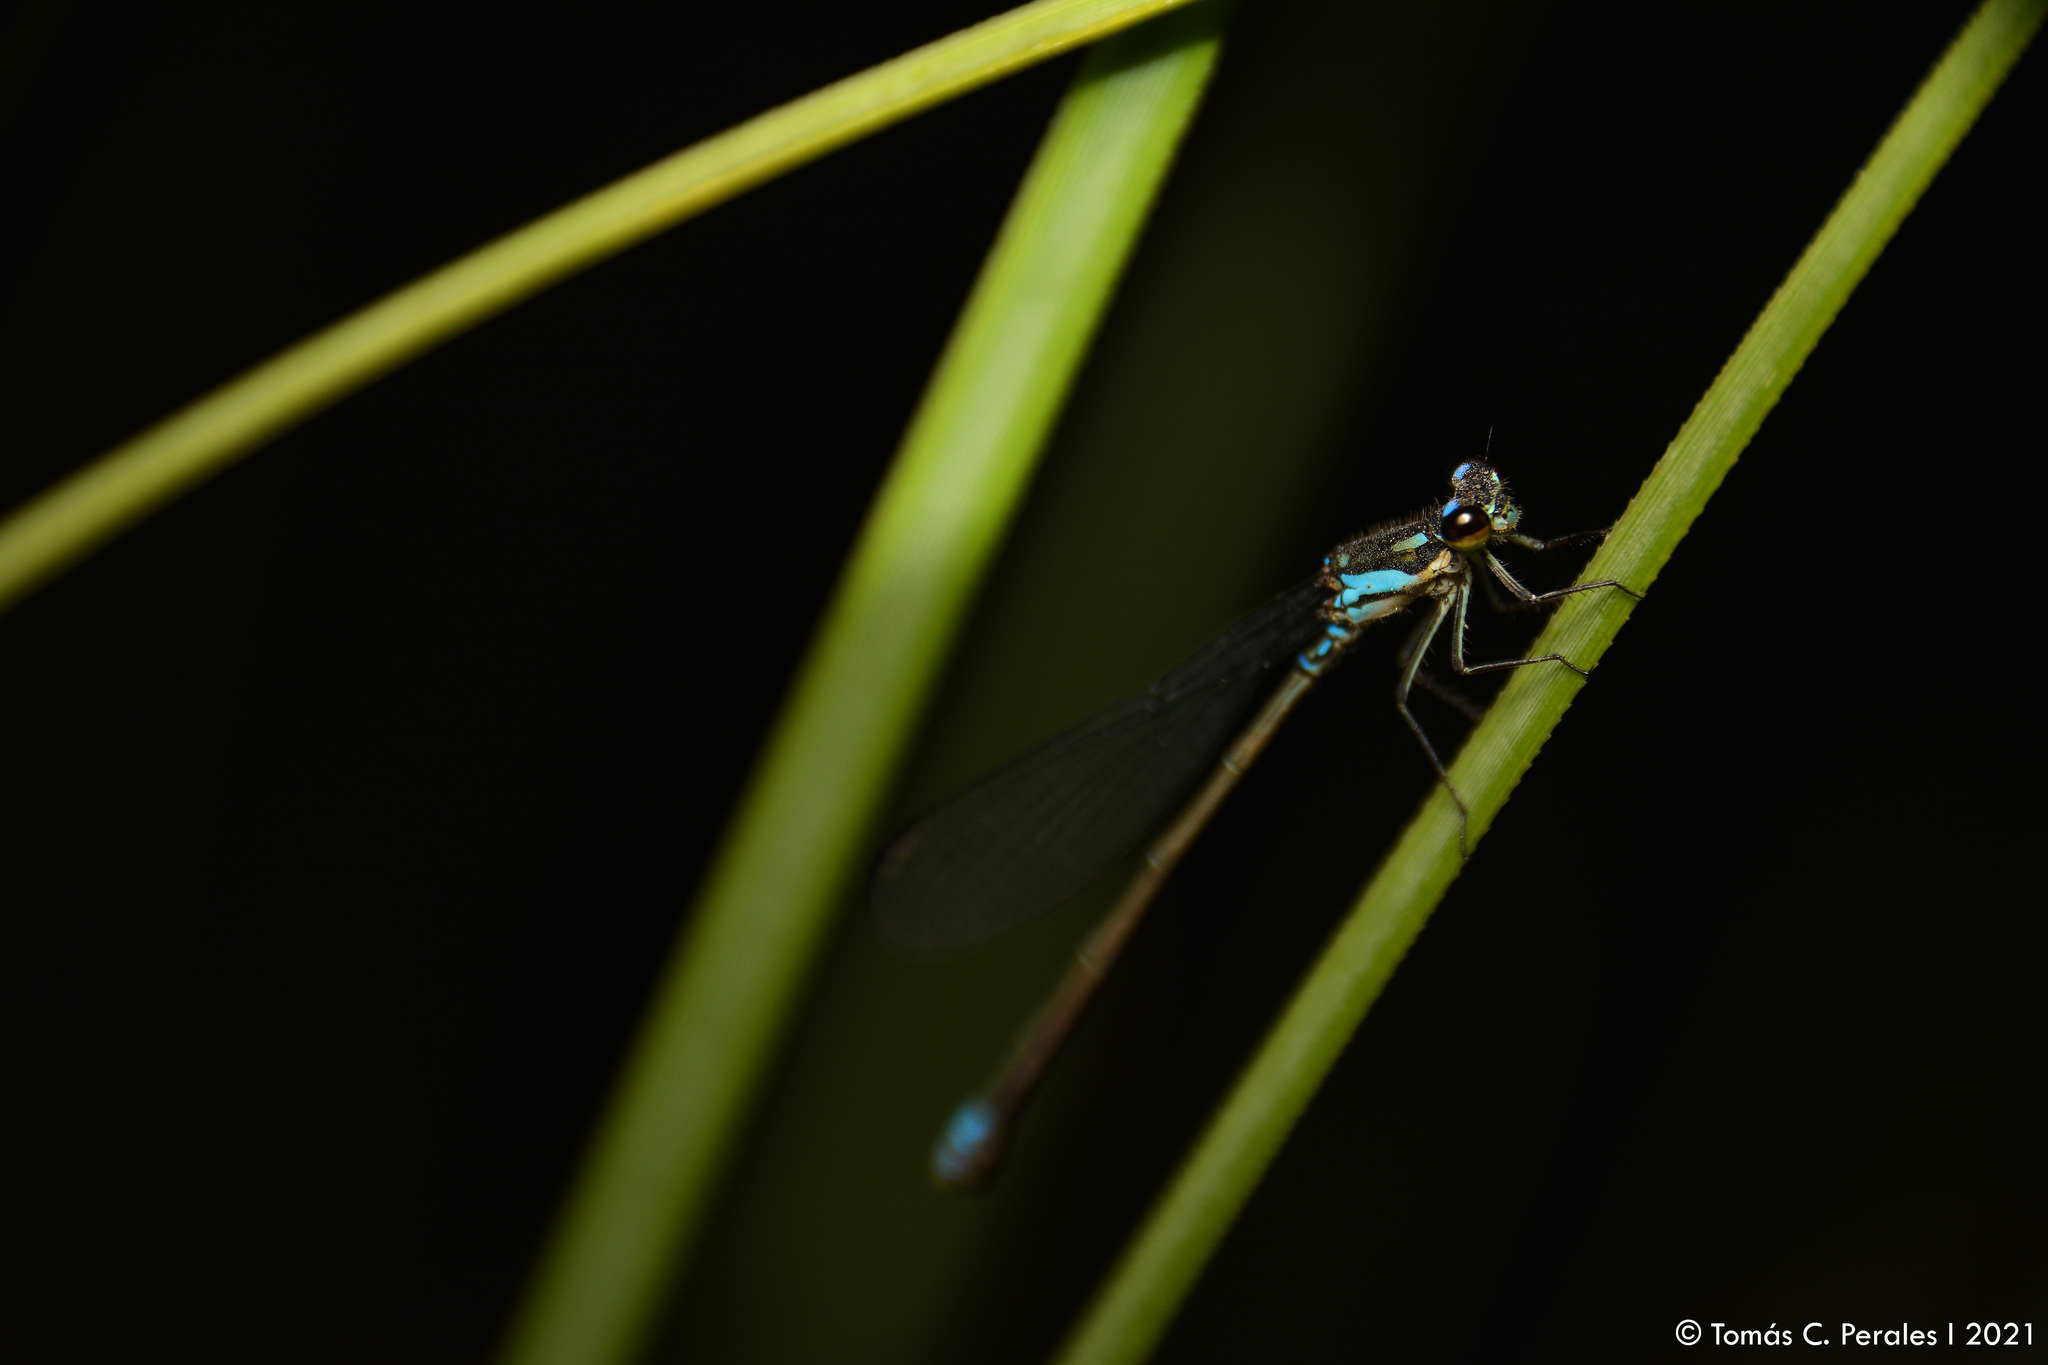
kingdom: Animalia
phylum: Arthropoda
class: Insecta
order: Odonata
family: Coenagrionidae
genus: Cyanallagma
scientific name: Cyanallagma bonariense
